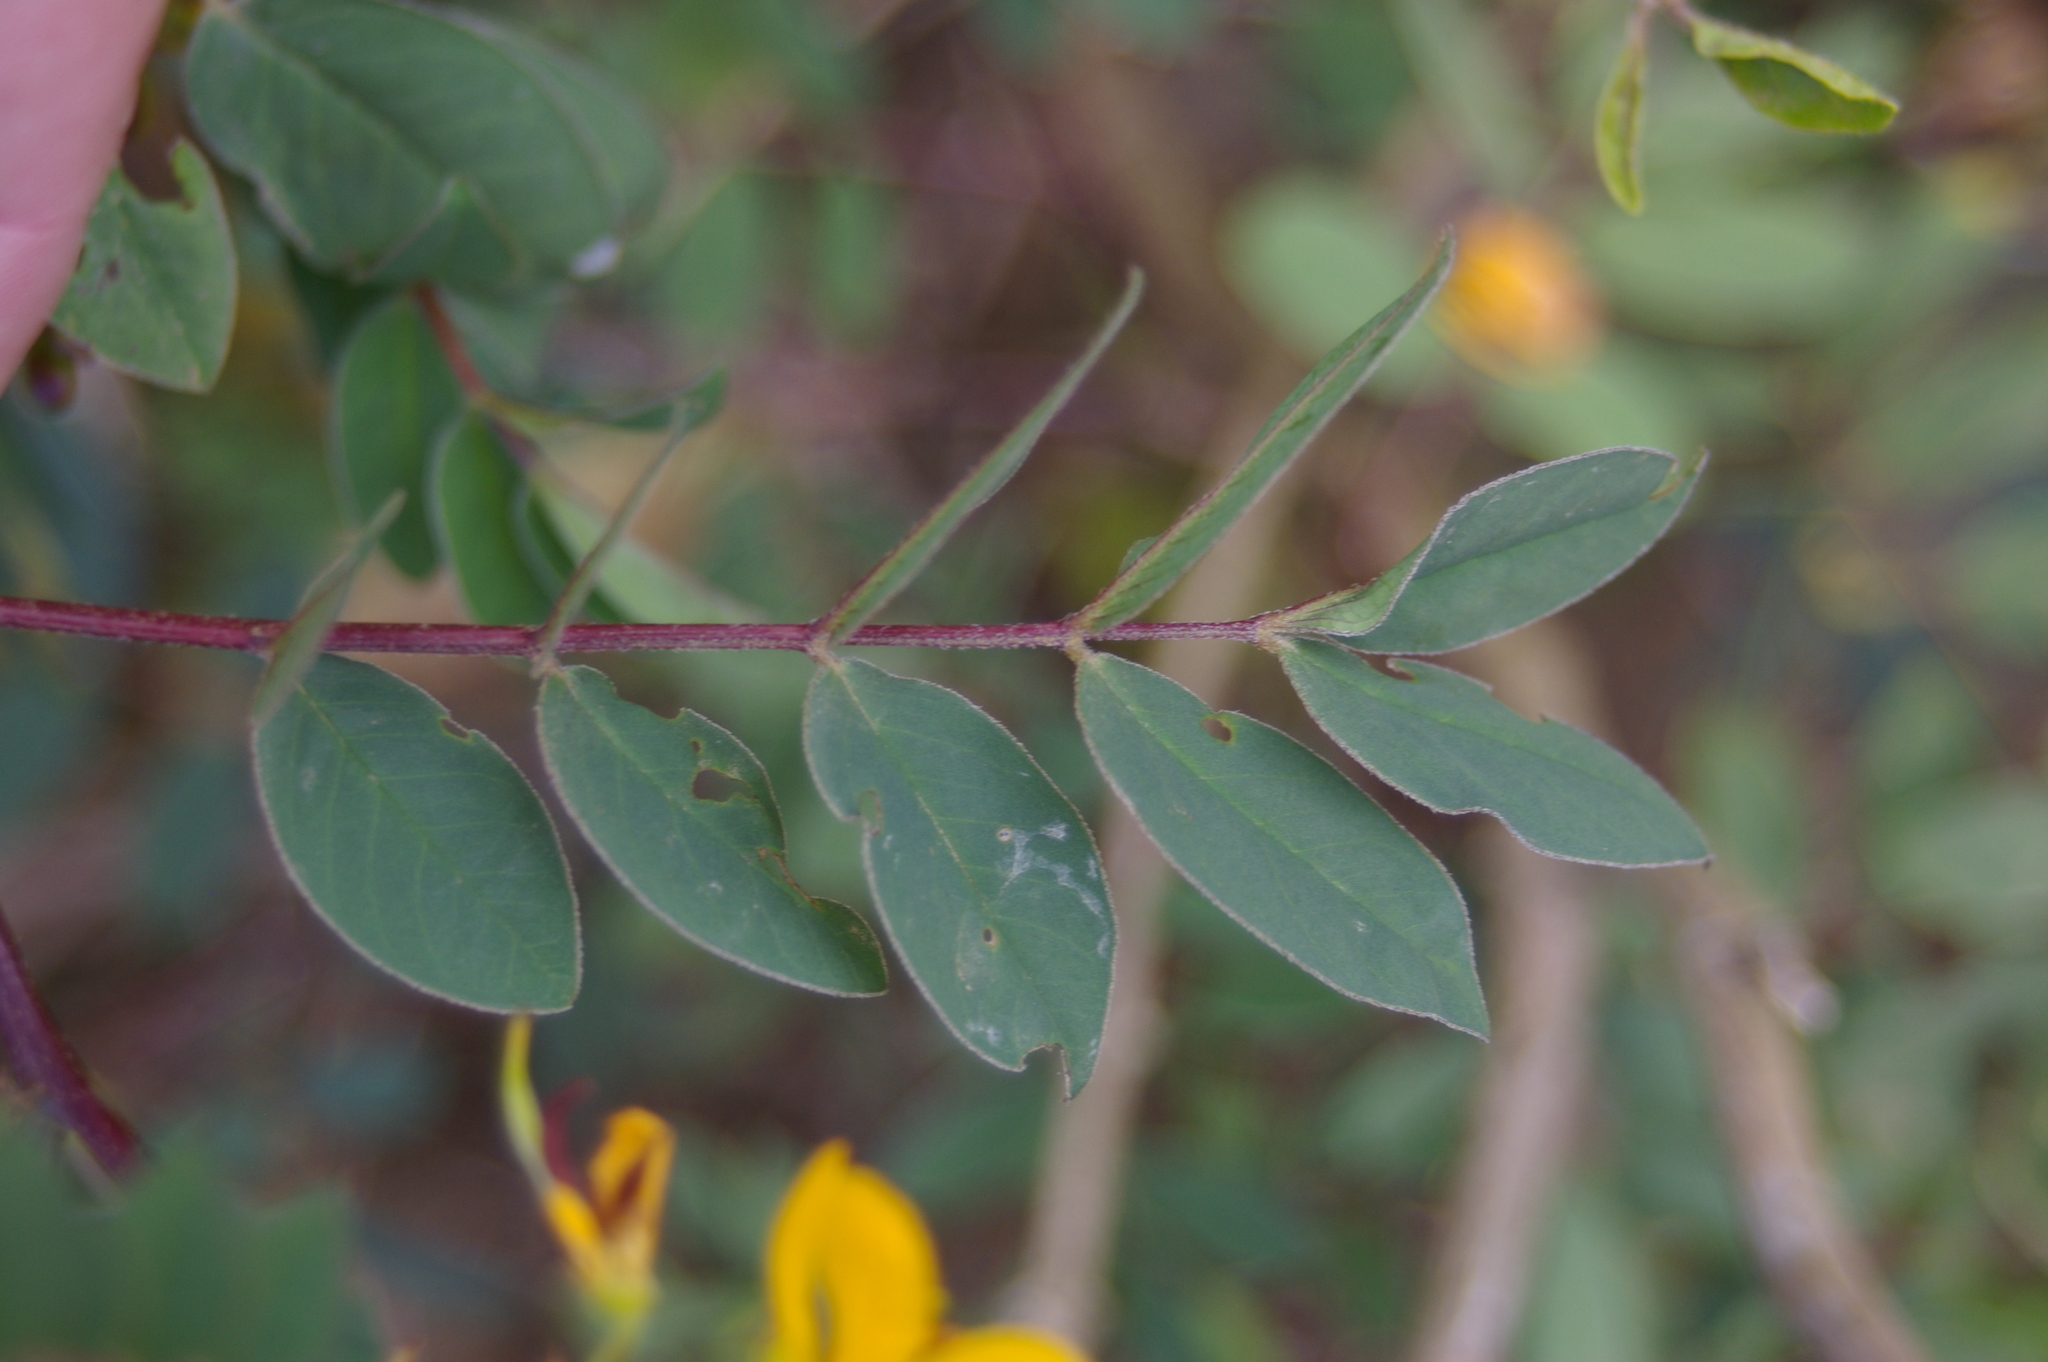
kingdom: Plantae
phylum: Tracheophyta
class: Magnoliopsida
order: Fabales
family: Fabaceae
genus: Senna
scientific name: Senna occidentalis
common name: Septicweed
